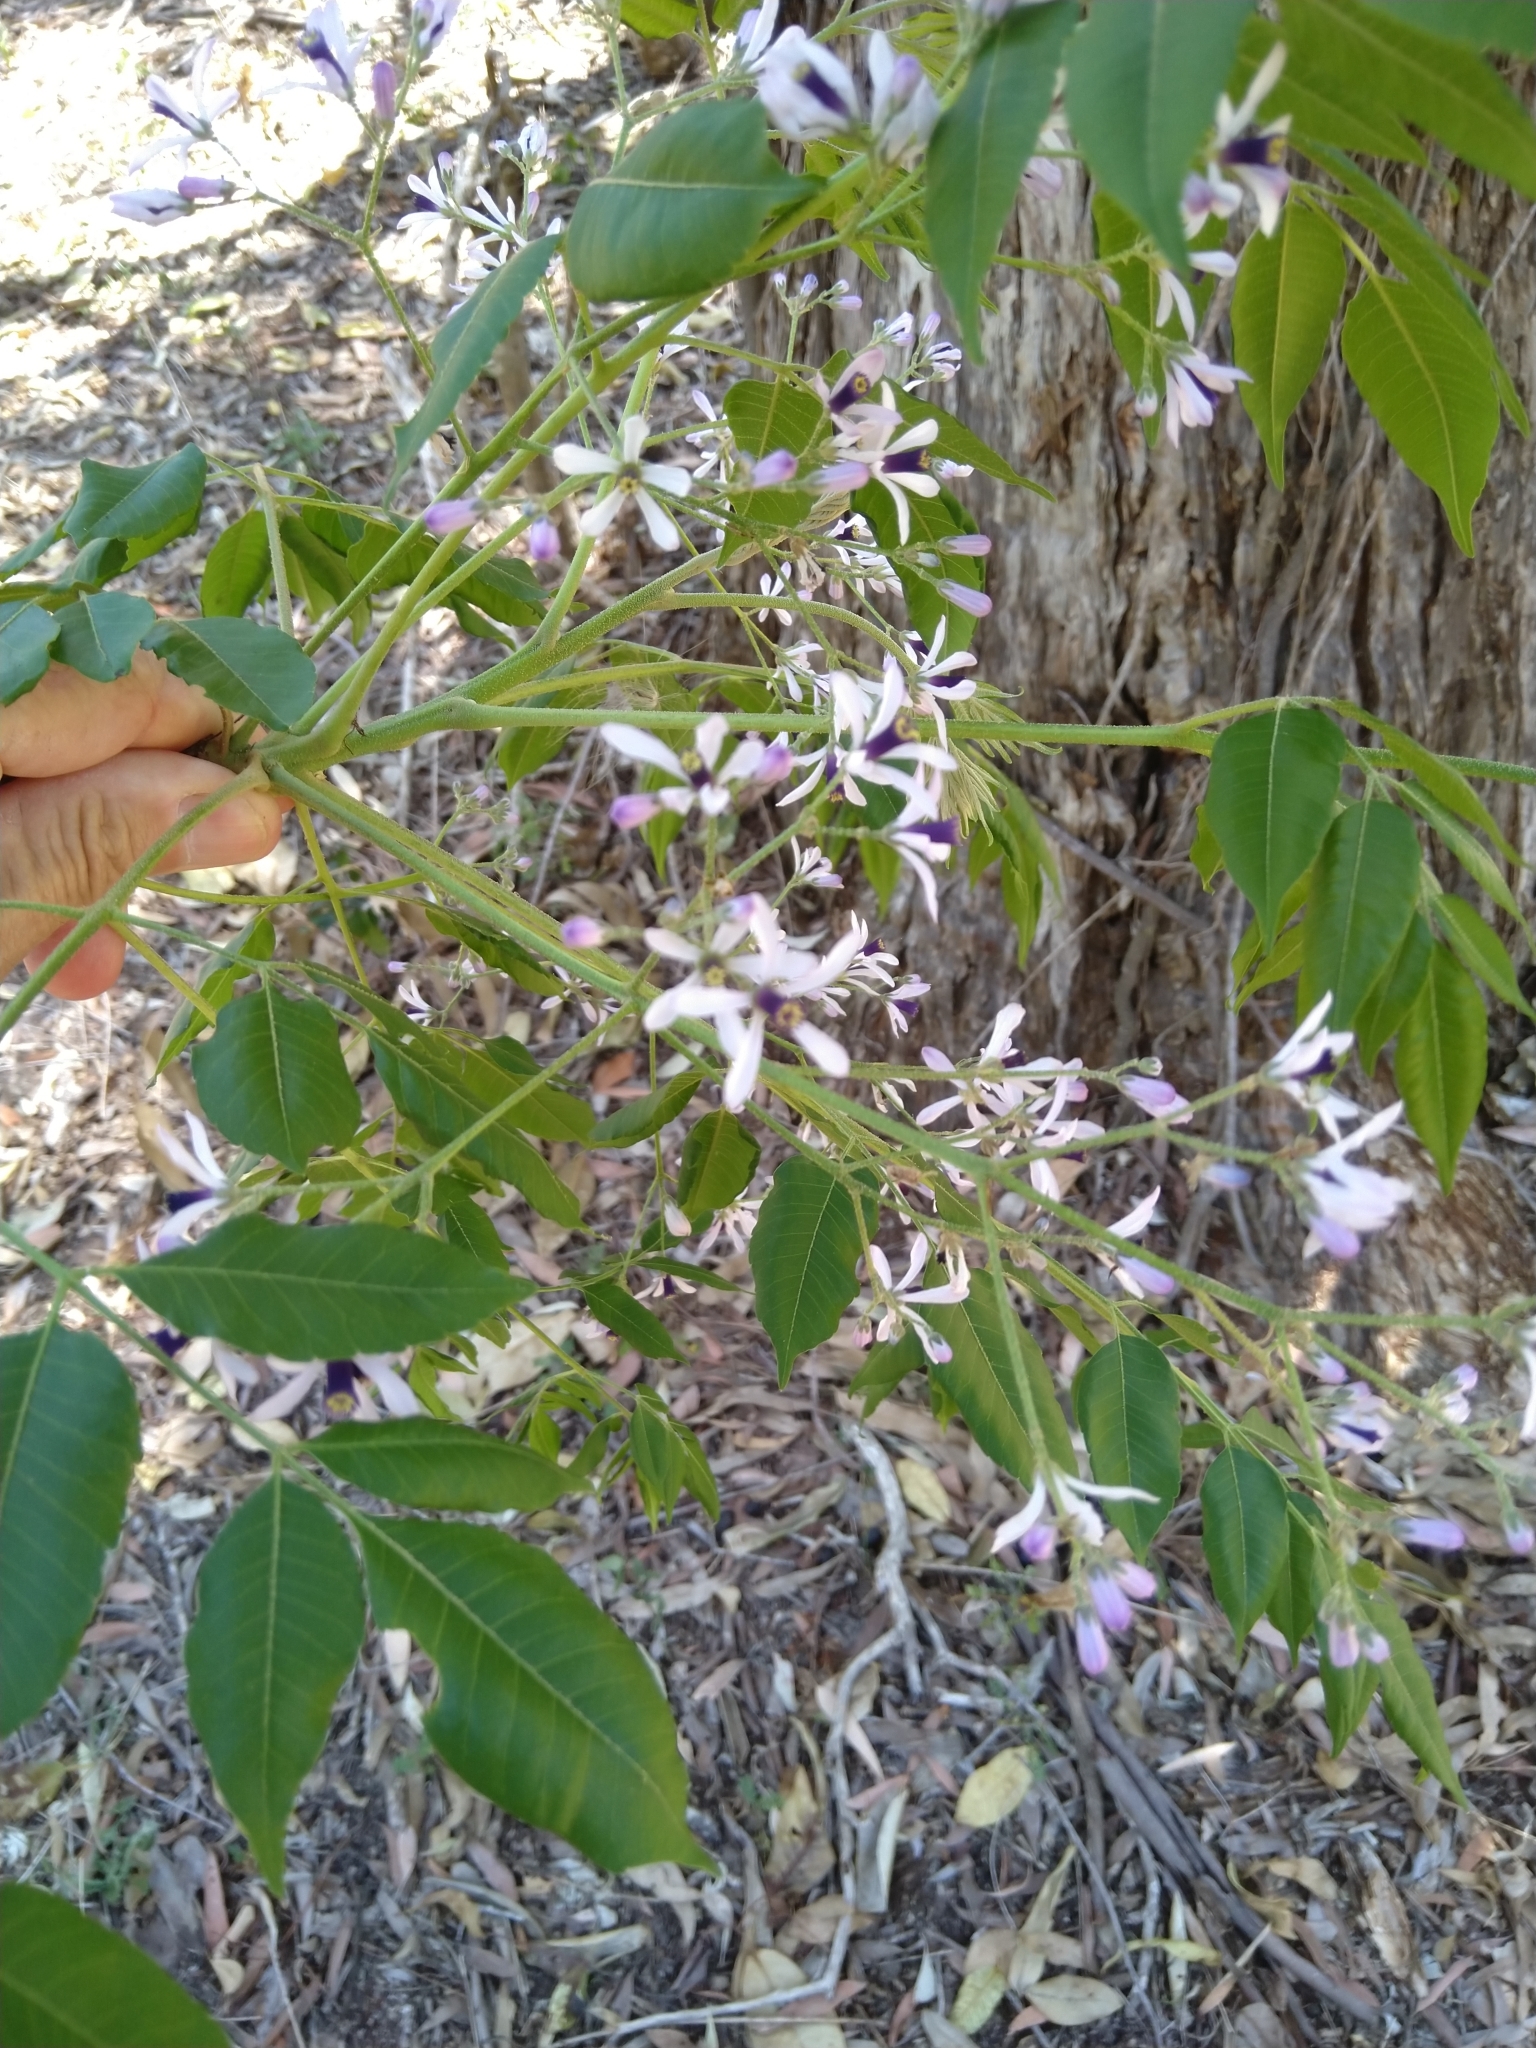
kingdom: Plantae
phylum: Tracheophyta
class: Magnoliopsida
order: Sapindales
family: Meliaceae
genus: Melia
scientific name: Melia azedarach
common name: Chinaberrytree
